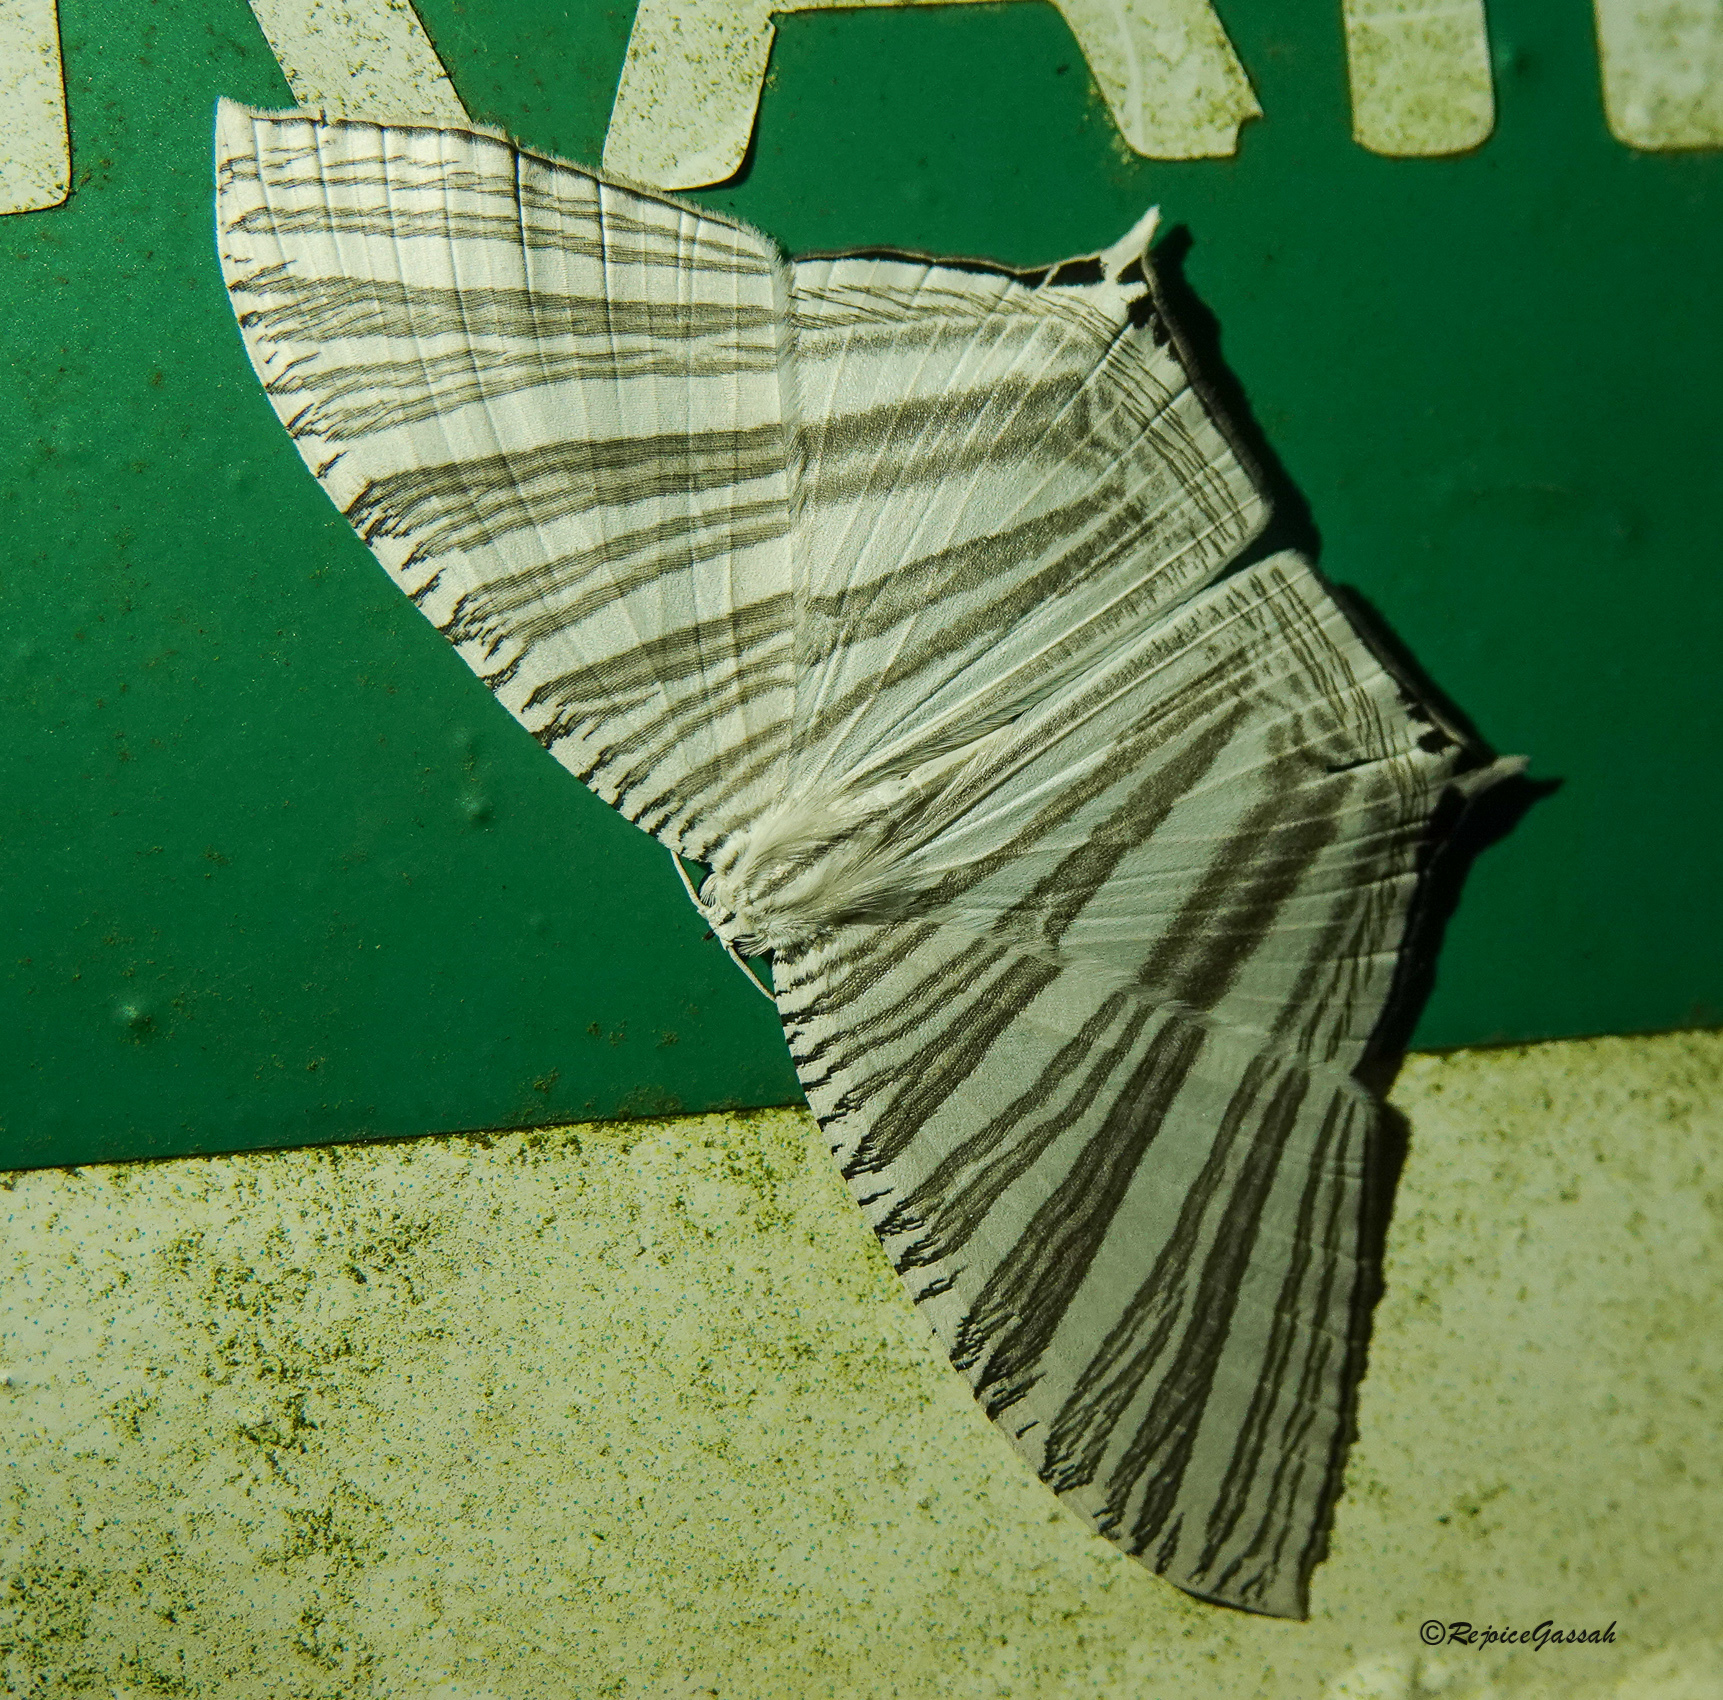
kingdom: Animalia
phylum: Arthropoda
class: Insecta
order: Lepidoptera
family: Uraniidae
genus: Strophidia
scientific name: Strophidia caudata
